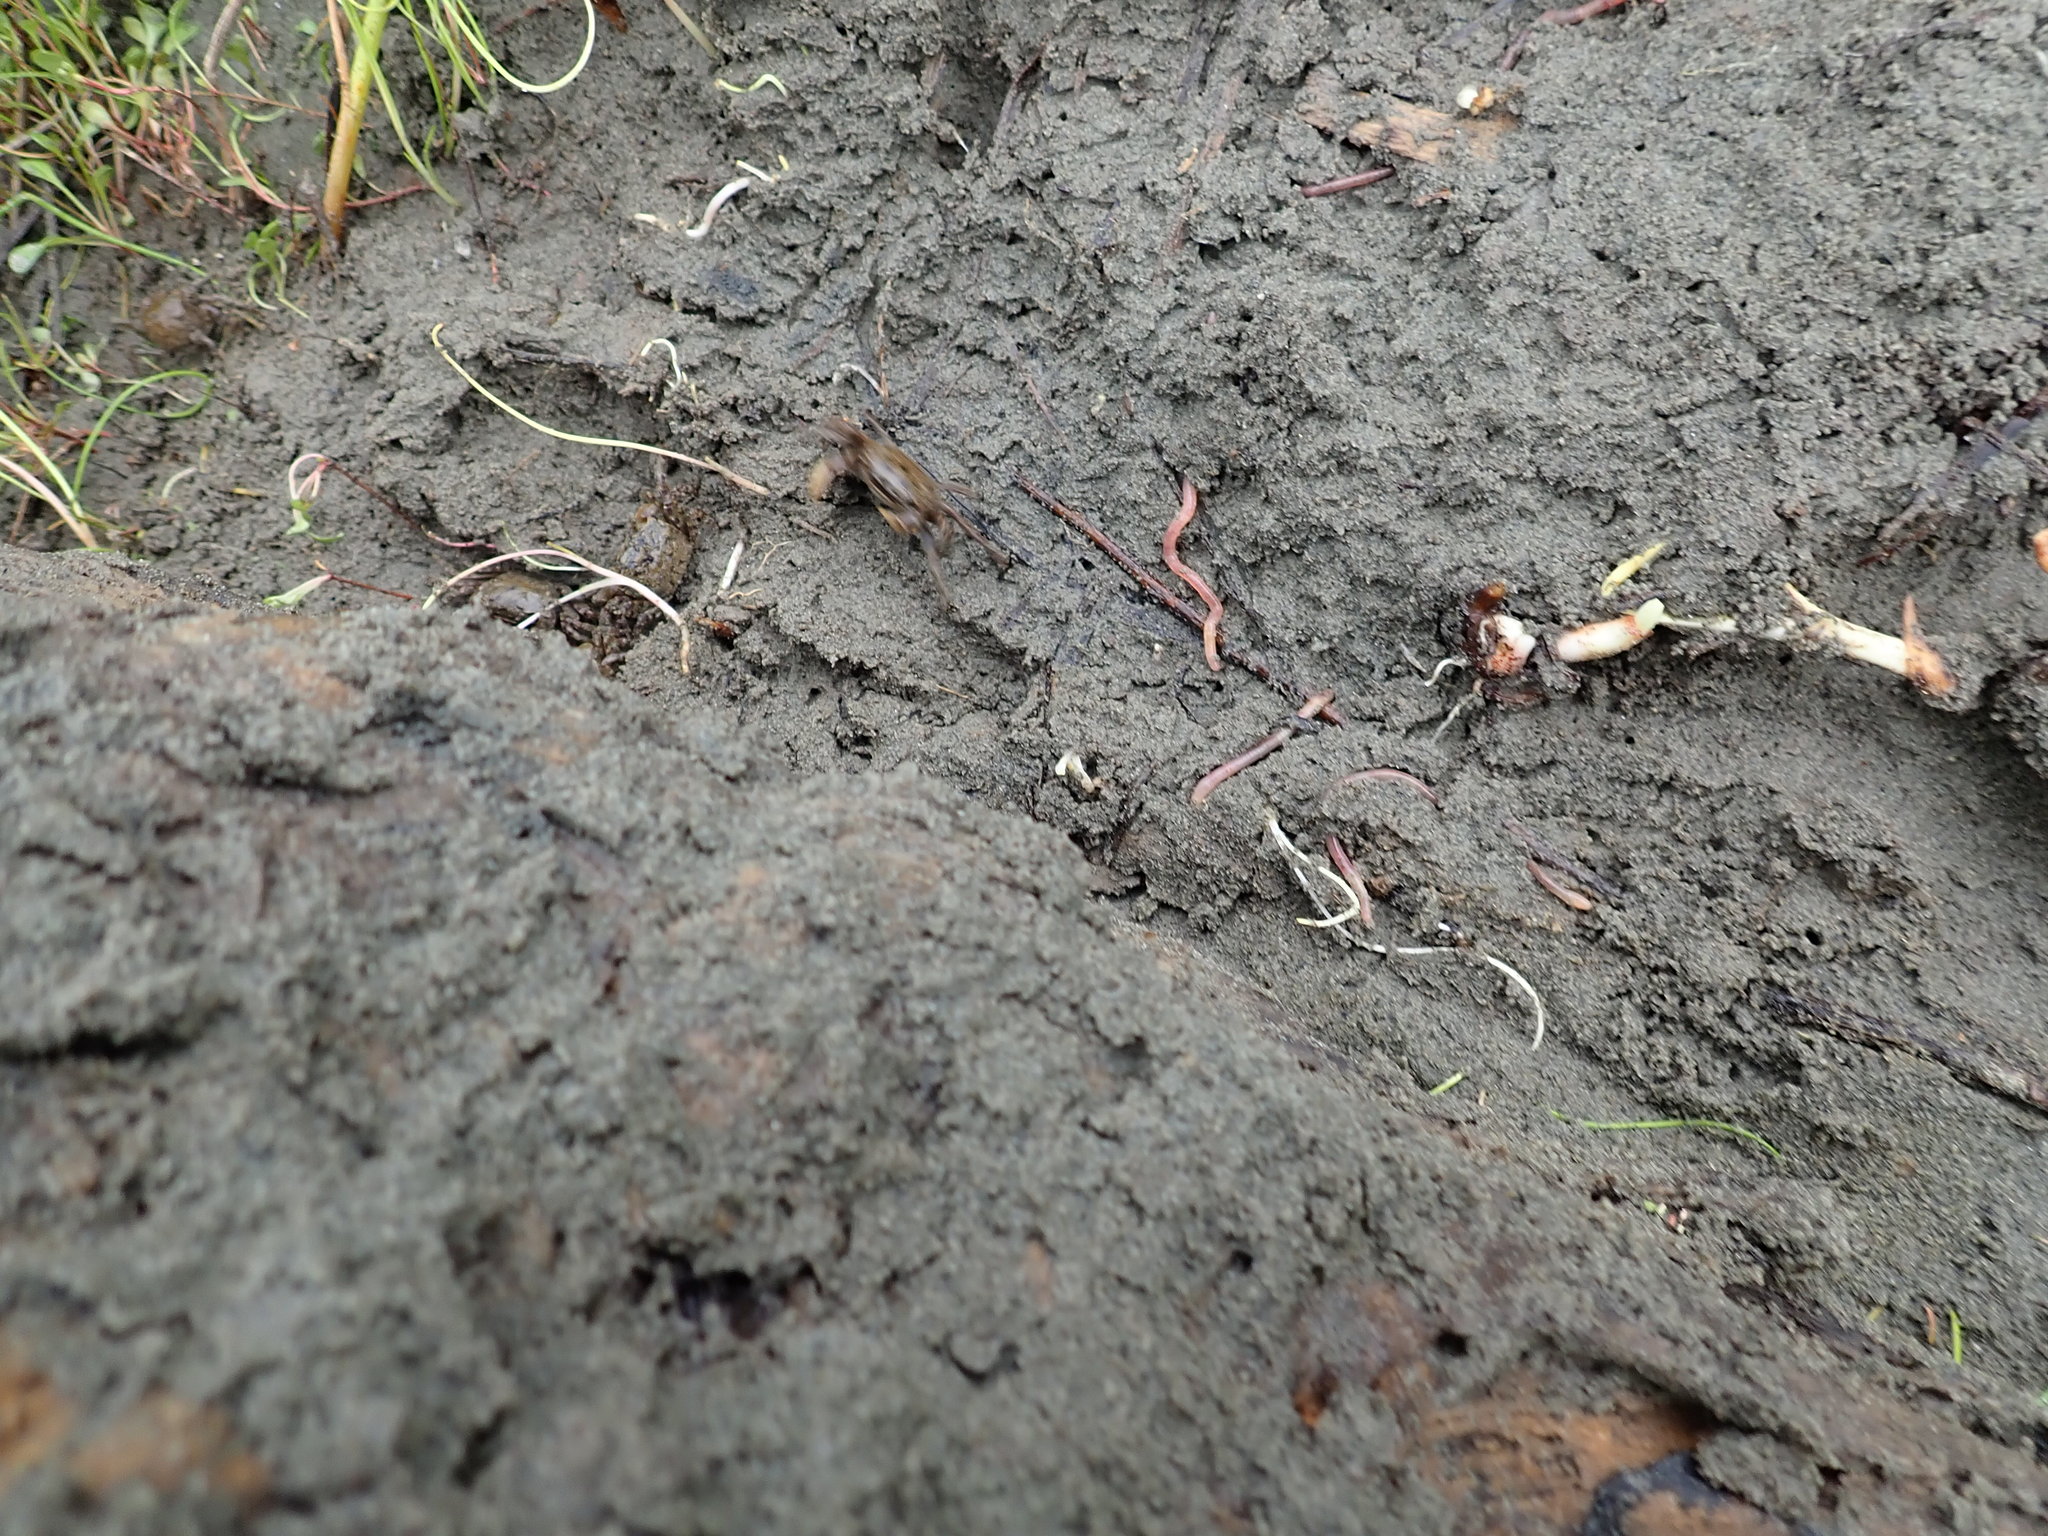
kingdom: Animalia
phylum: Arthropoda
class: Malacostraca
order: Decapoda
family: Varunidae
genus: Austrohelice
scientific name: Austrohelice crassa
